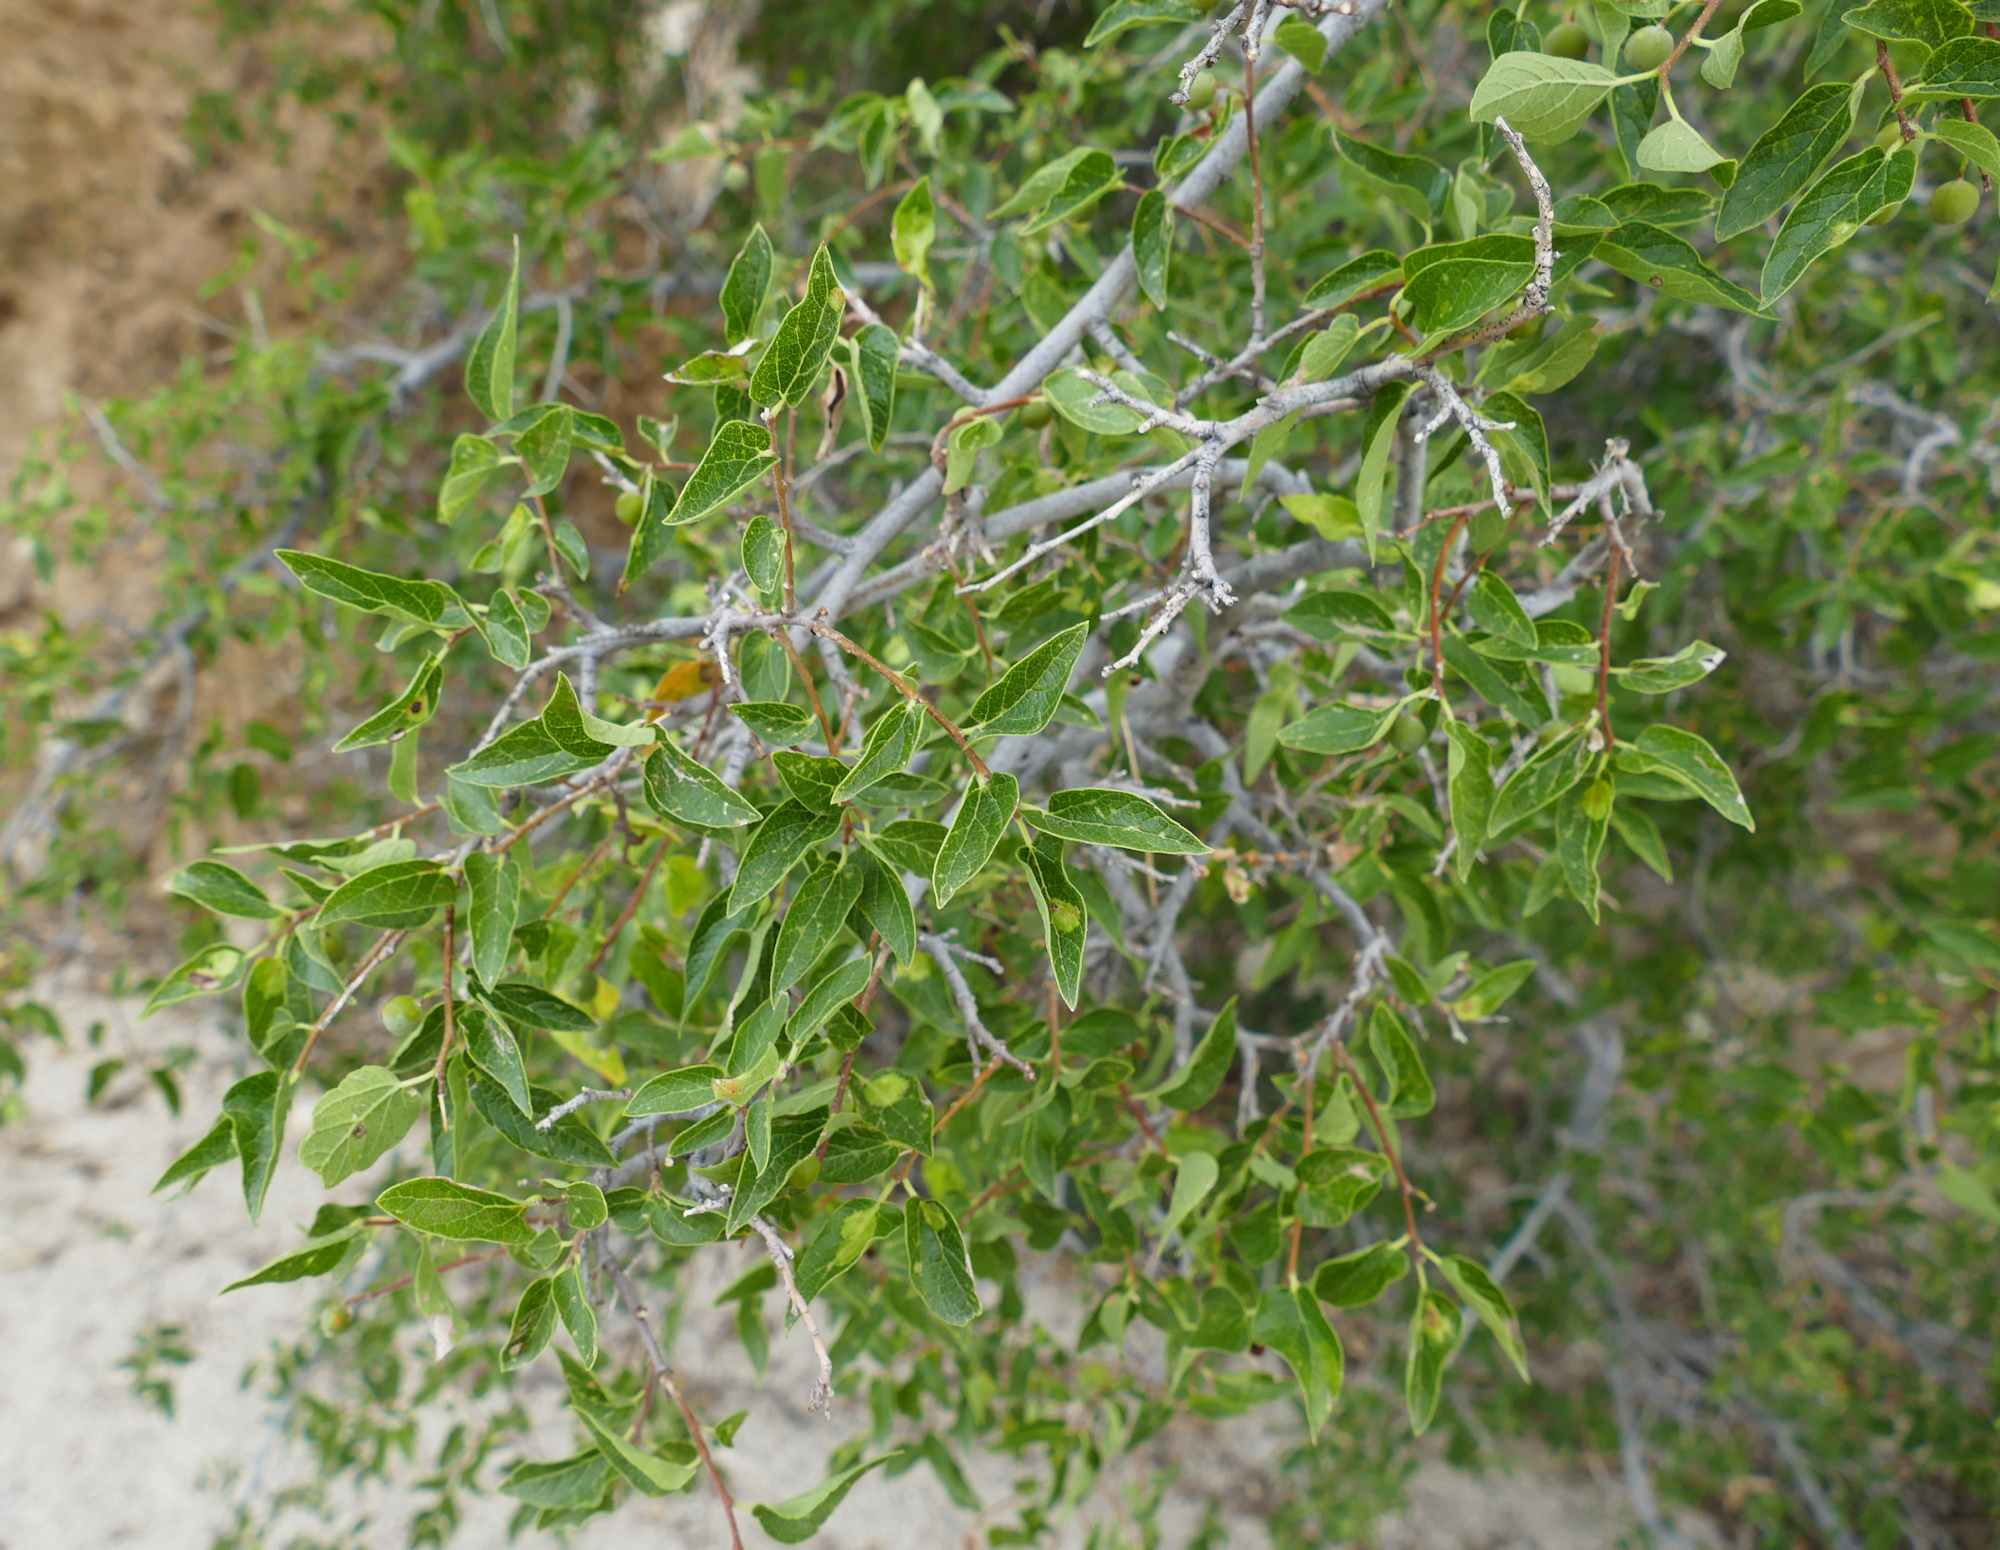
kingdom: Plantae
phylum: Tracheophyta
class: Magnoliopsida
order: Rosales
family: Cannabaceae
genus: Celtis
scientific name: Celtis reticulata
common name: Netleaf hackberry
